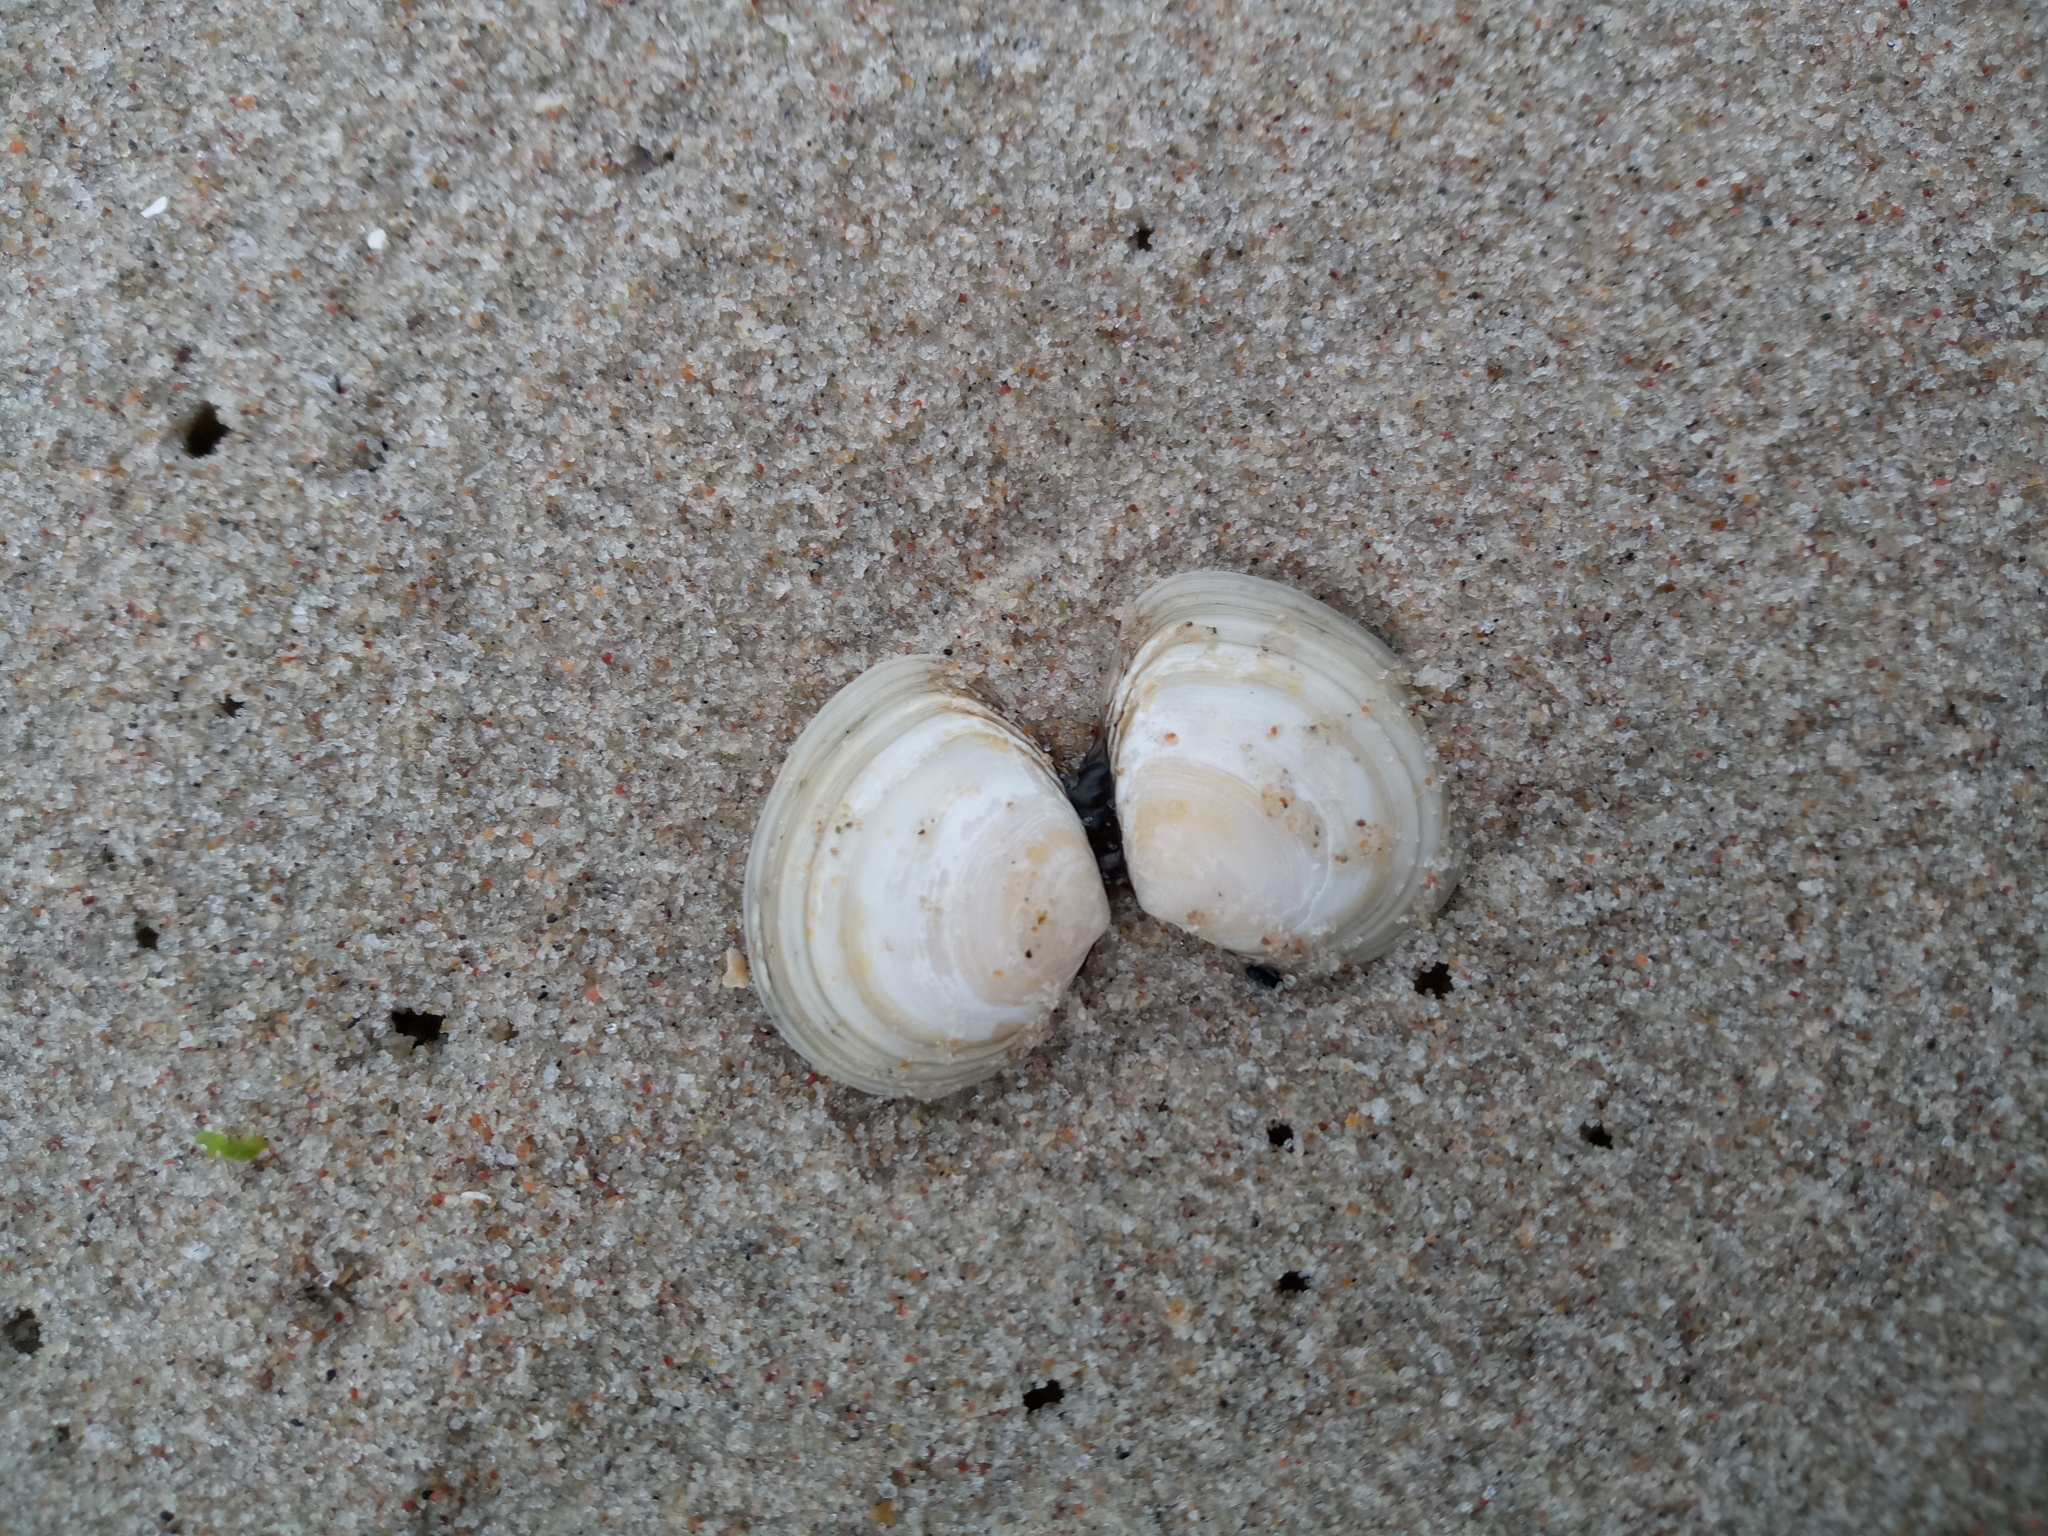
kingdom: Animalia
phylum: Mollusca
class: Bivalvia
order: Cardiida
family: Tellinidae
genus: Macoma
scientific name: Macoma balthica
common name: Baltic tellin
